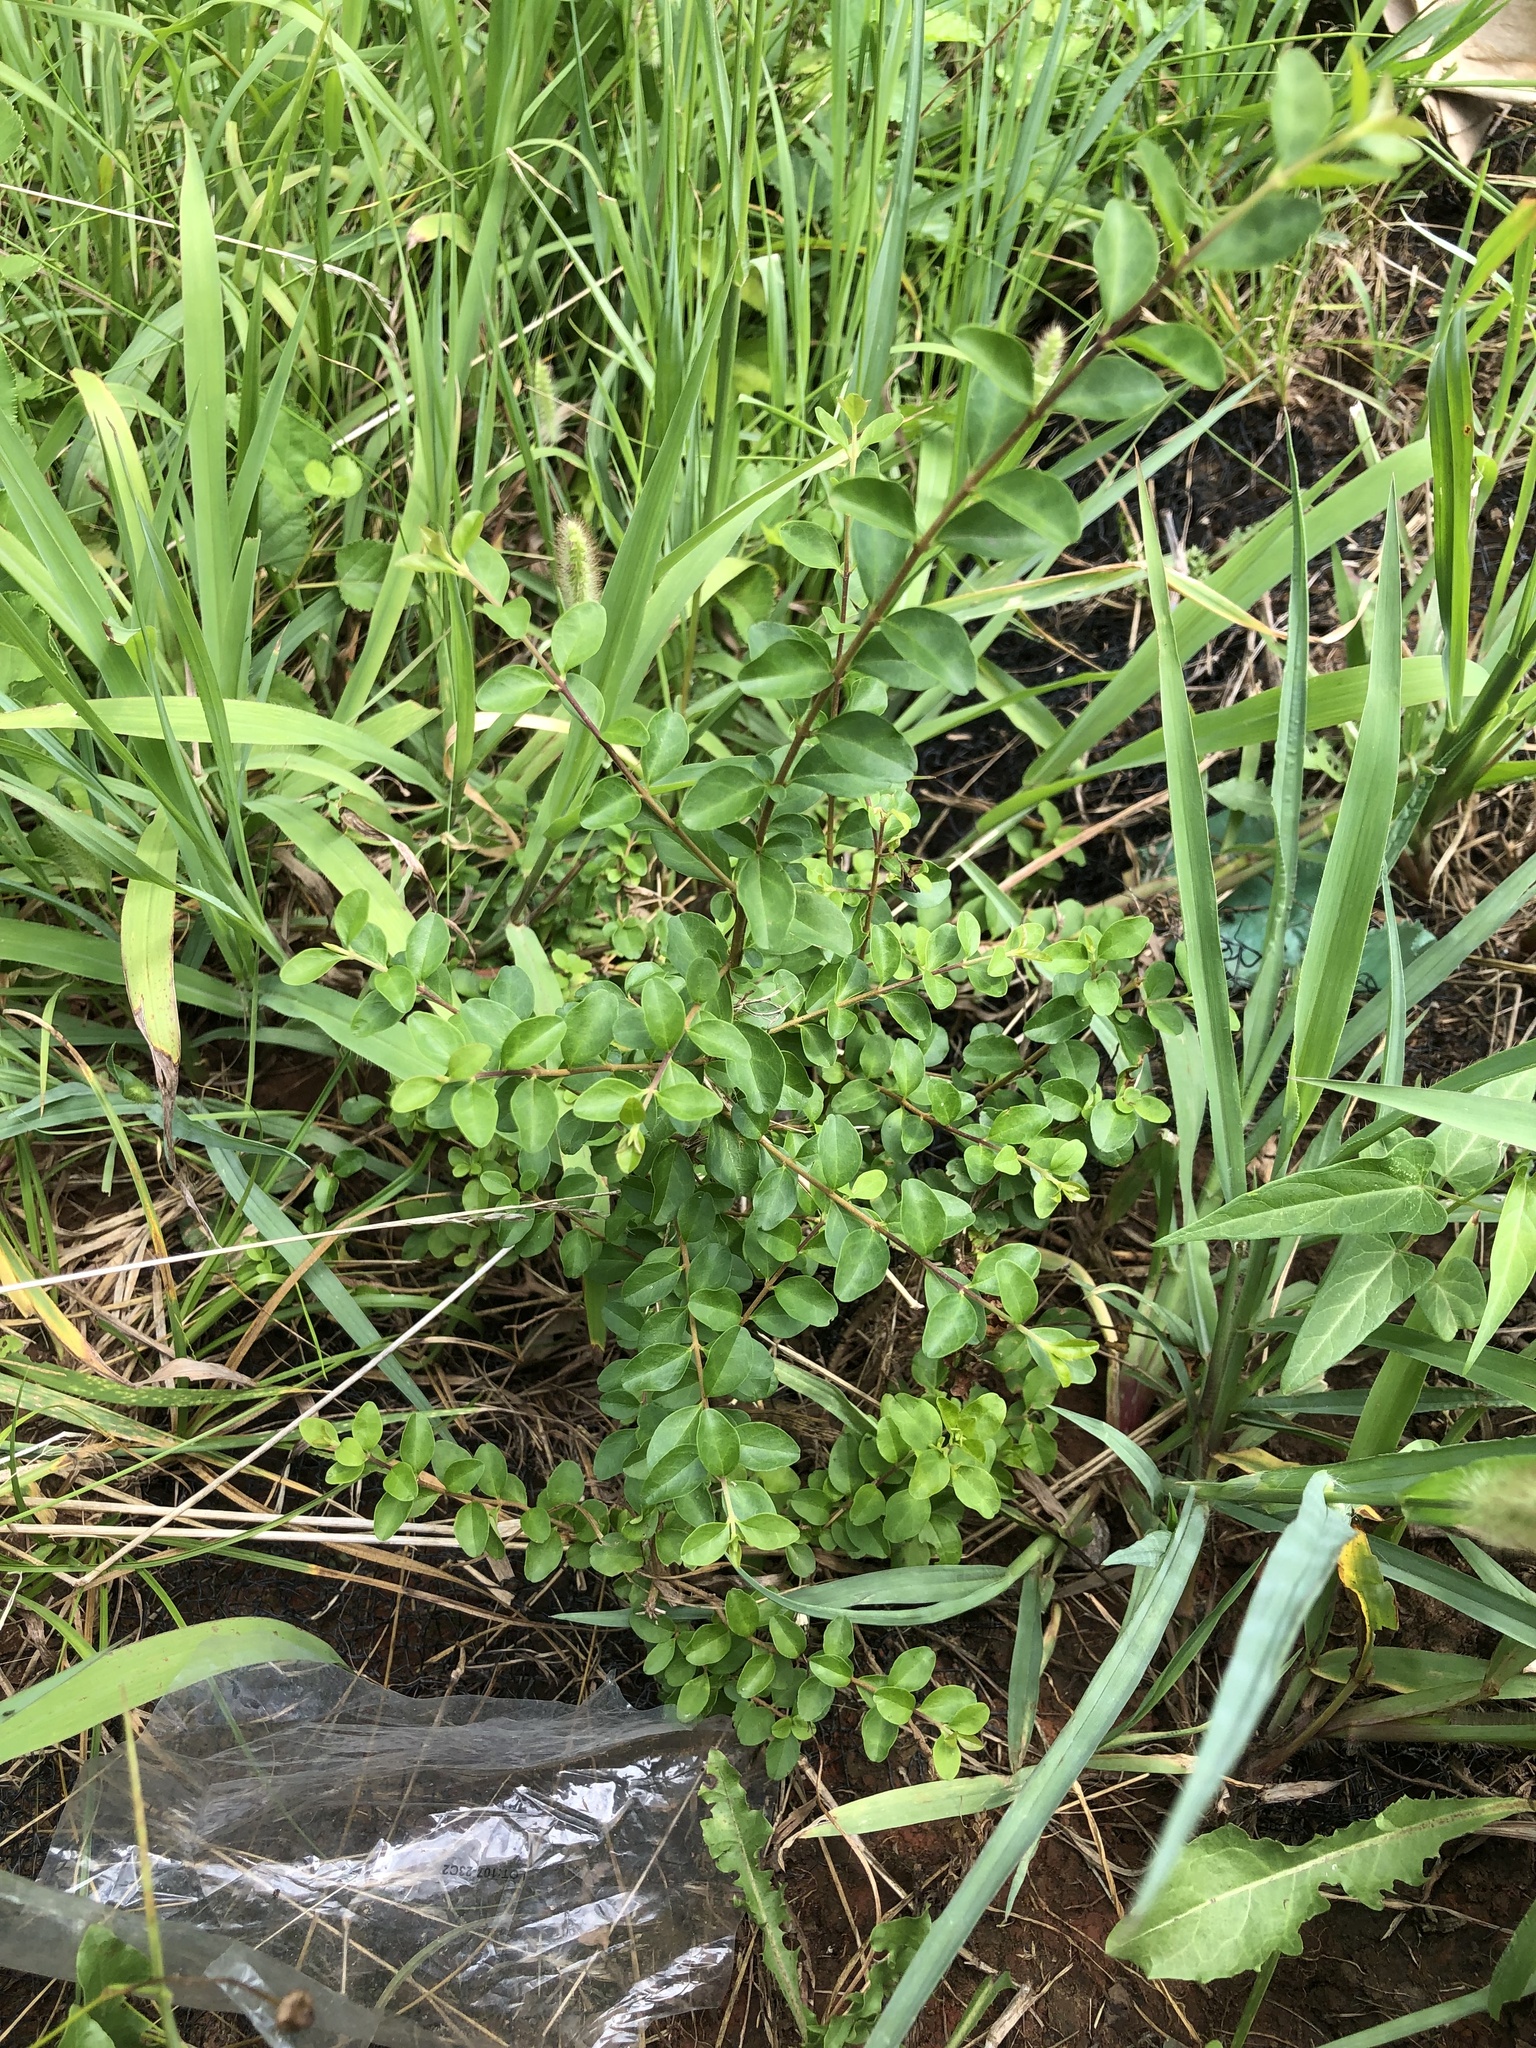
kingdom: Plantae
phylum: Tracheophyta
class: Magnoliopsida
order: Lamiales
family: Oleaceae
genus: Ligustrum
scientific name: Ligustrum sinense
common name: Chinese privet
